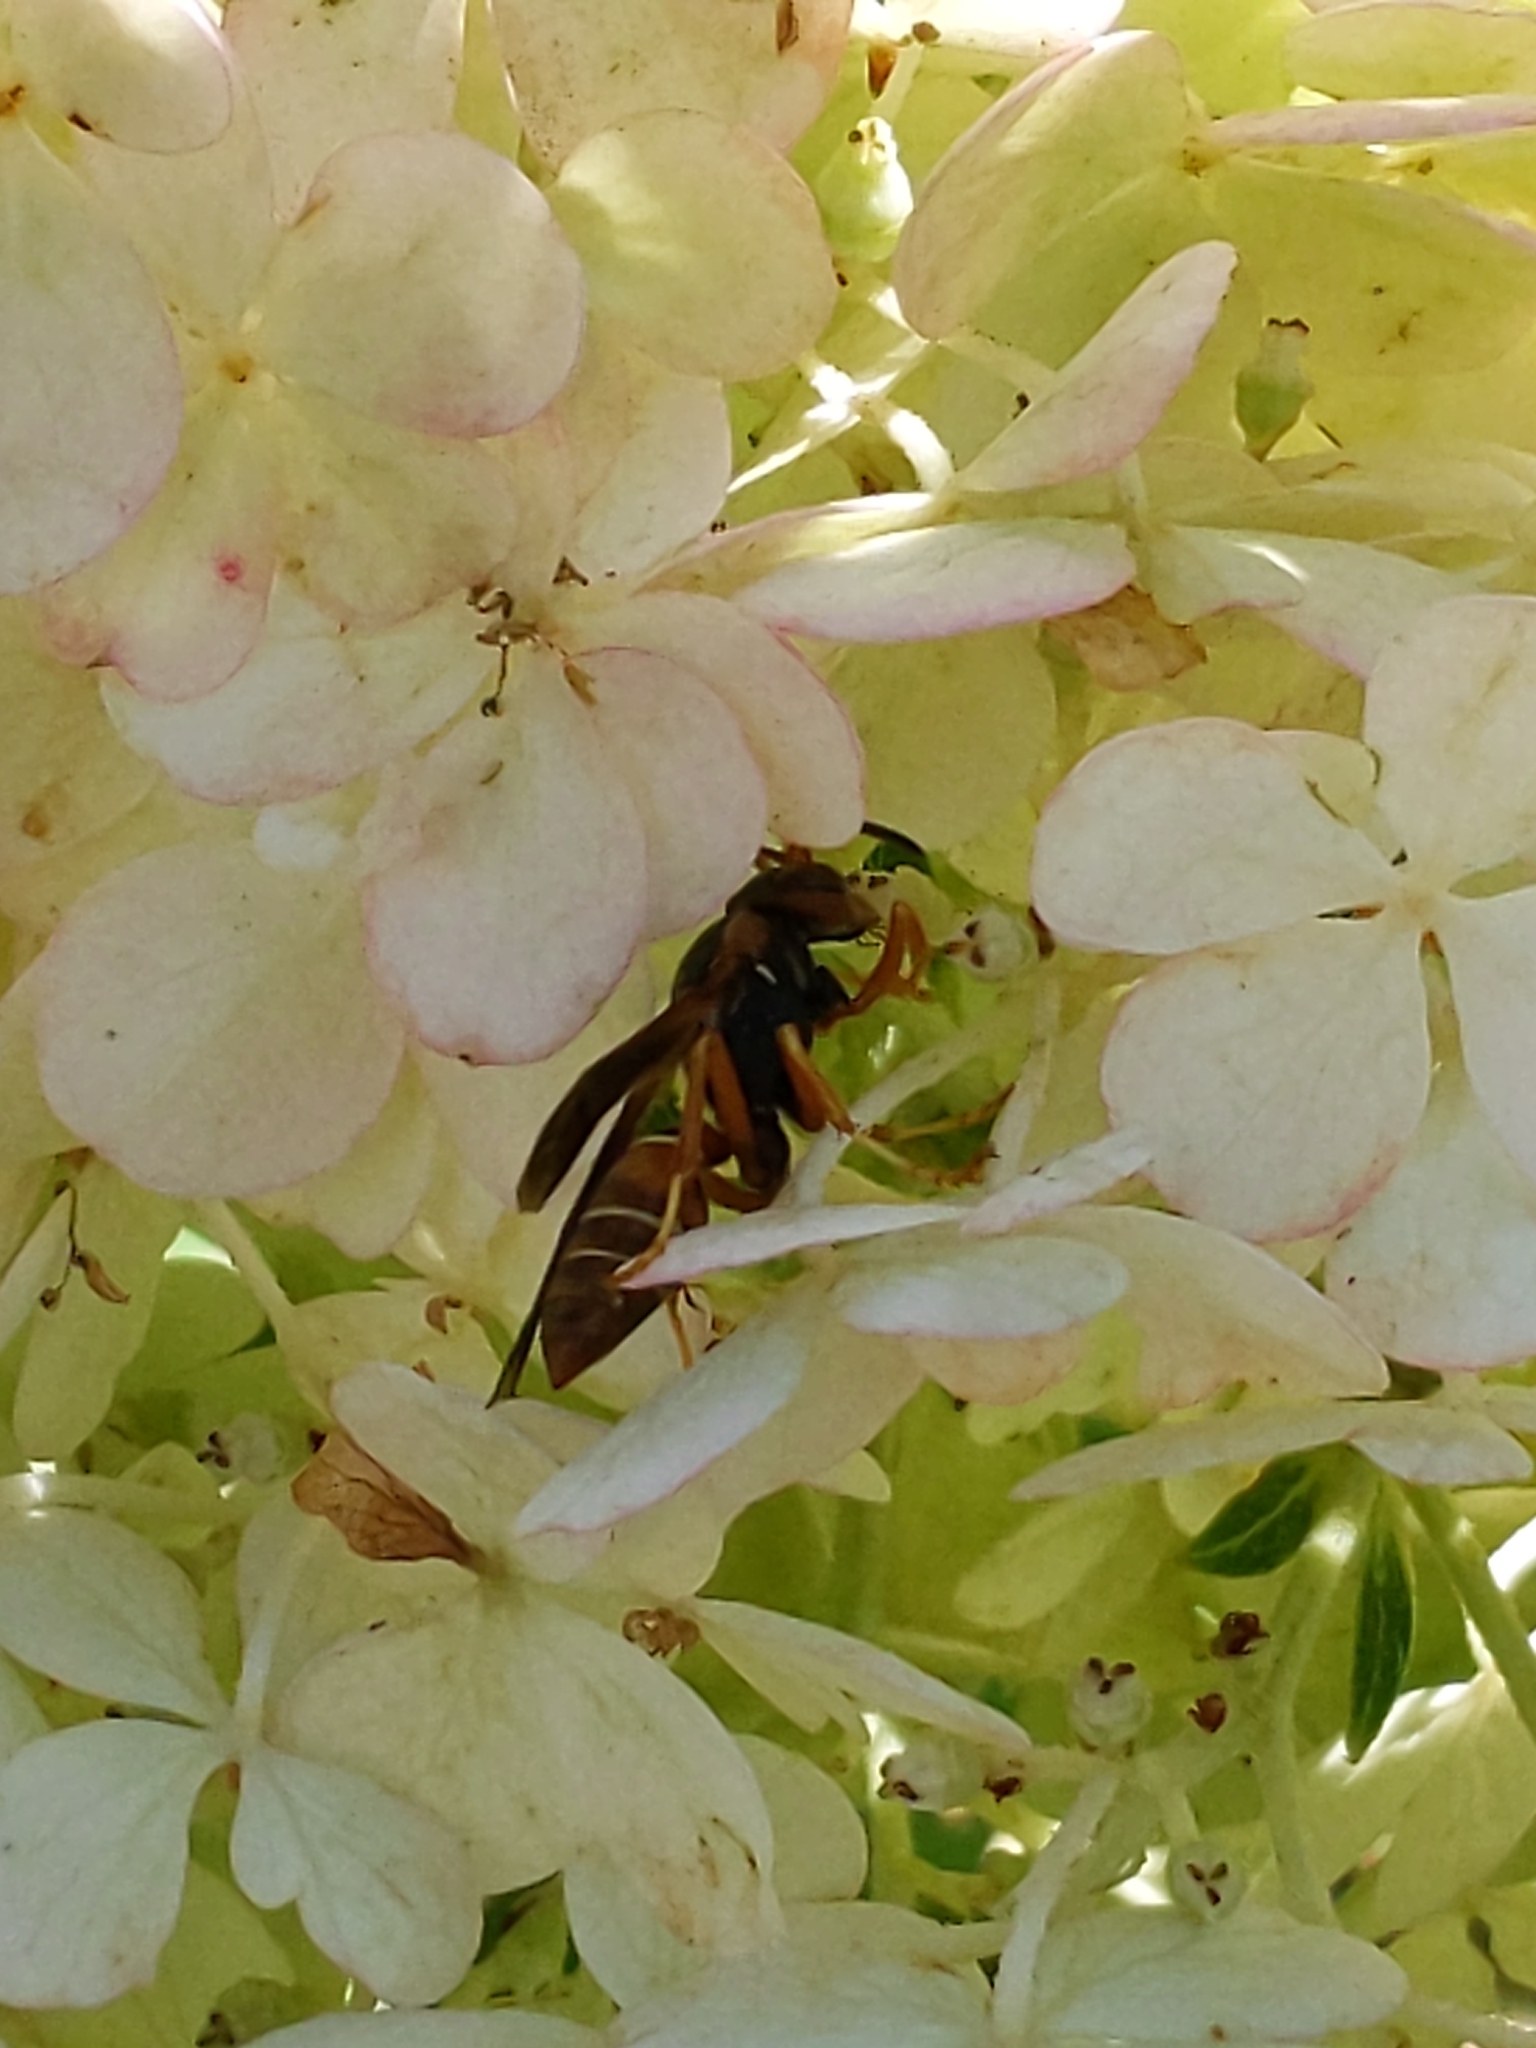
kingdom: Animalia
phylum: Arthropoda
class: Insecta
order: Hymenoptera
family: Eumenidae
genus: Polistes
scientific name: Polistes fuscatus
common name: Dark paper wasp
